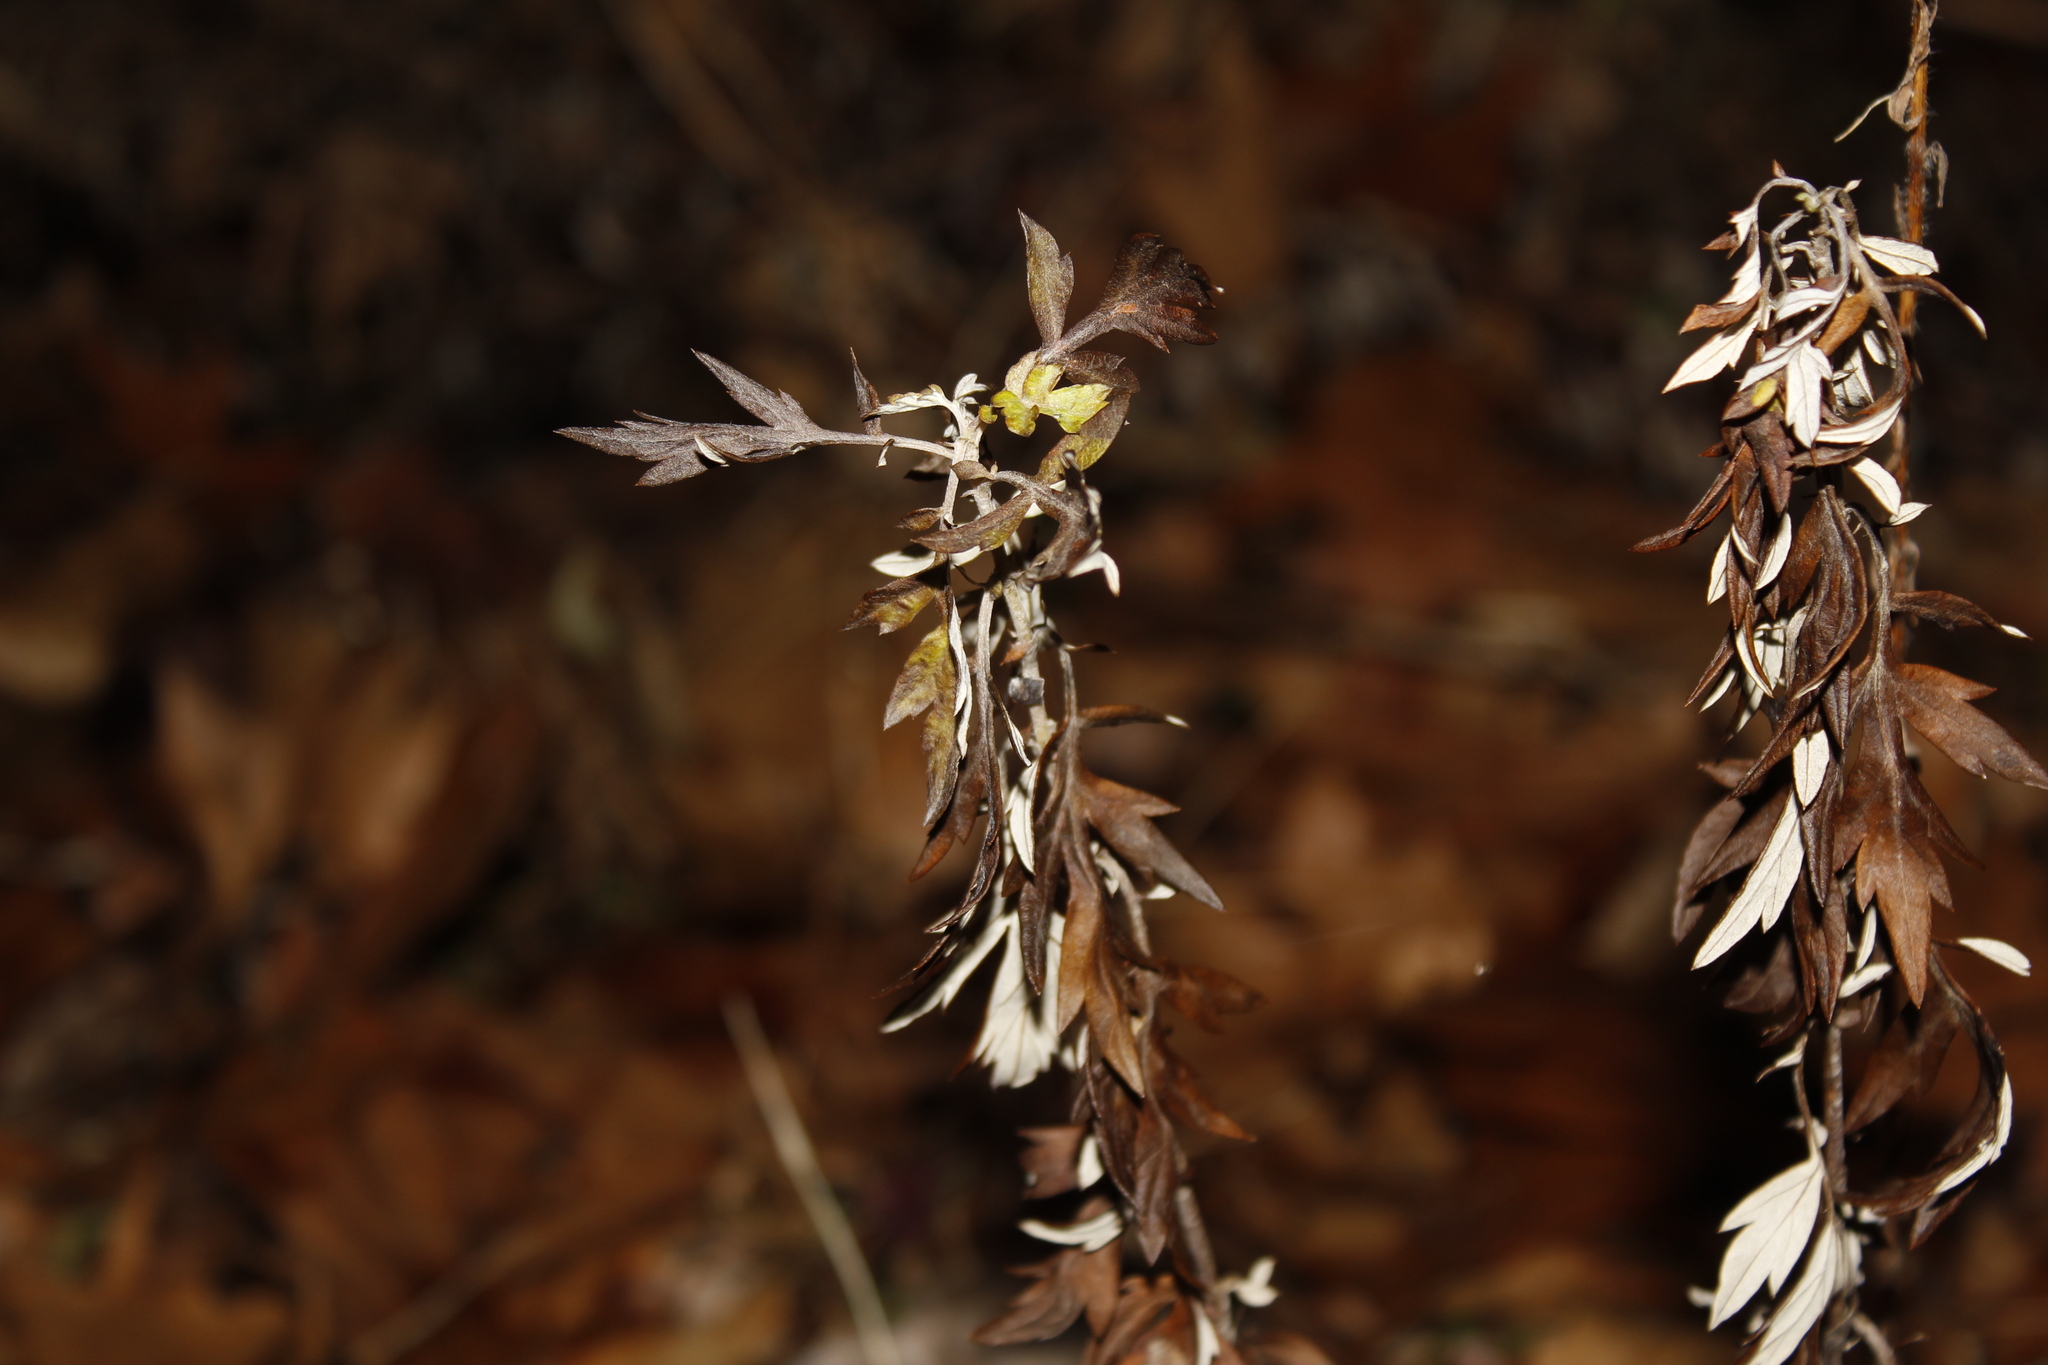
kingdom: Plantae
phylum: Tracheophyta
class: Magnoliopsida
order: Asterales
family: Asteraceae
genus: Artemisia
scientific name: Artemisia vulgaris
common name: Mugwort
